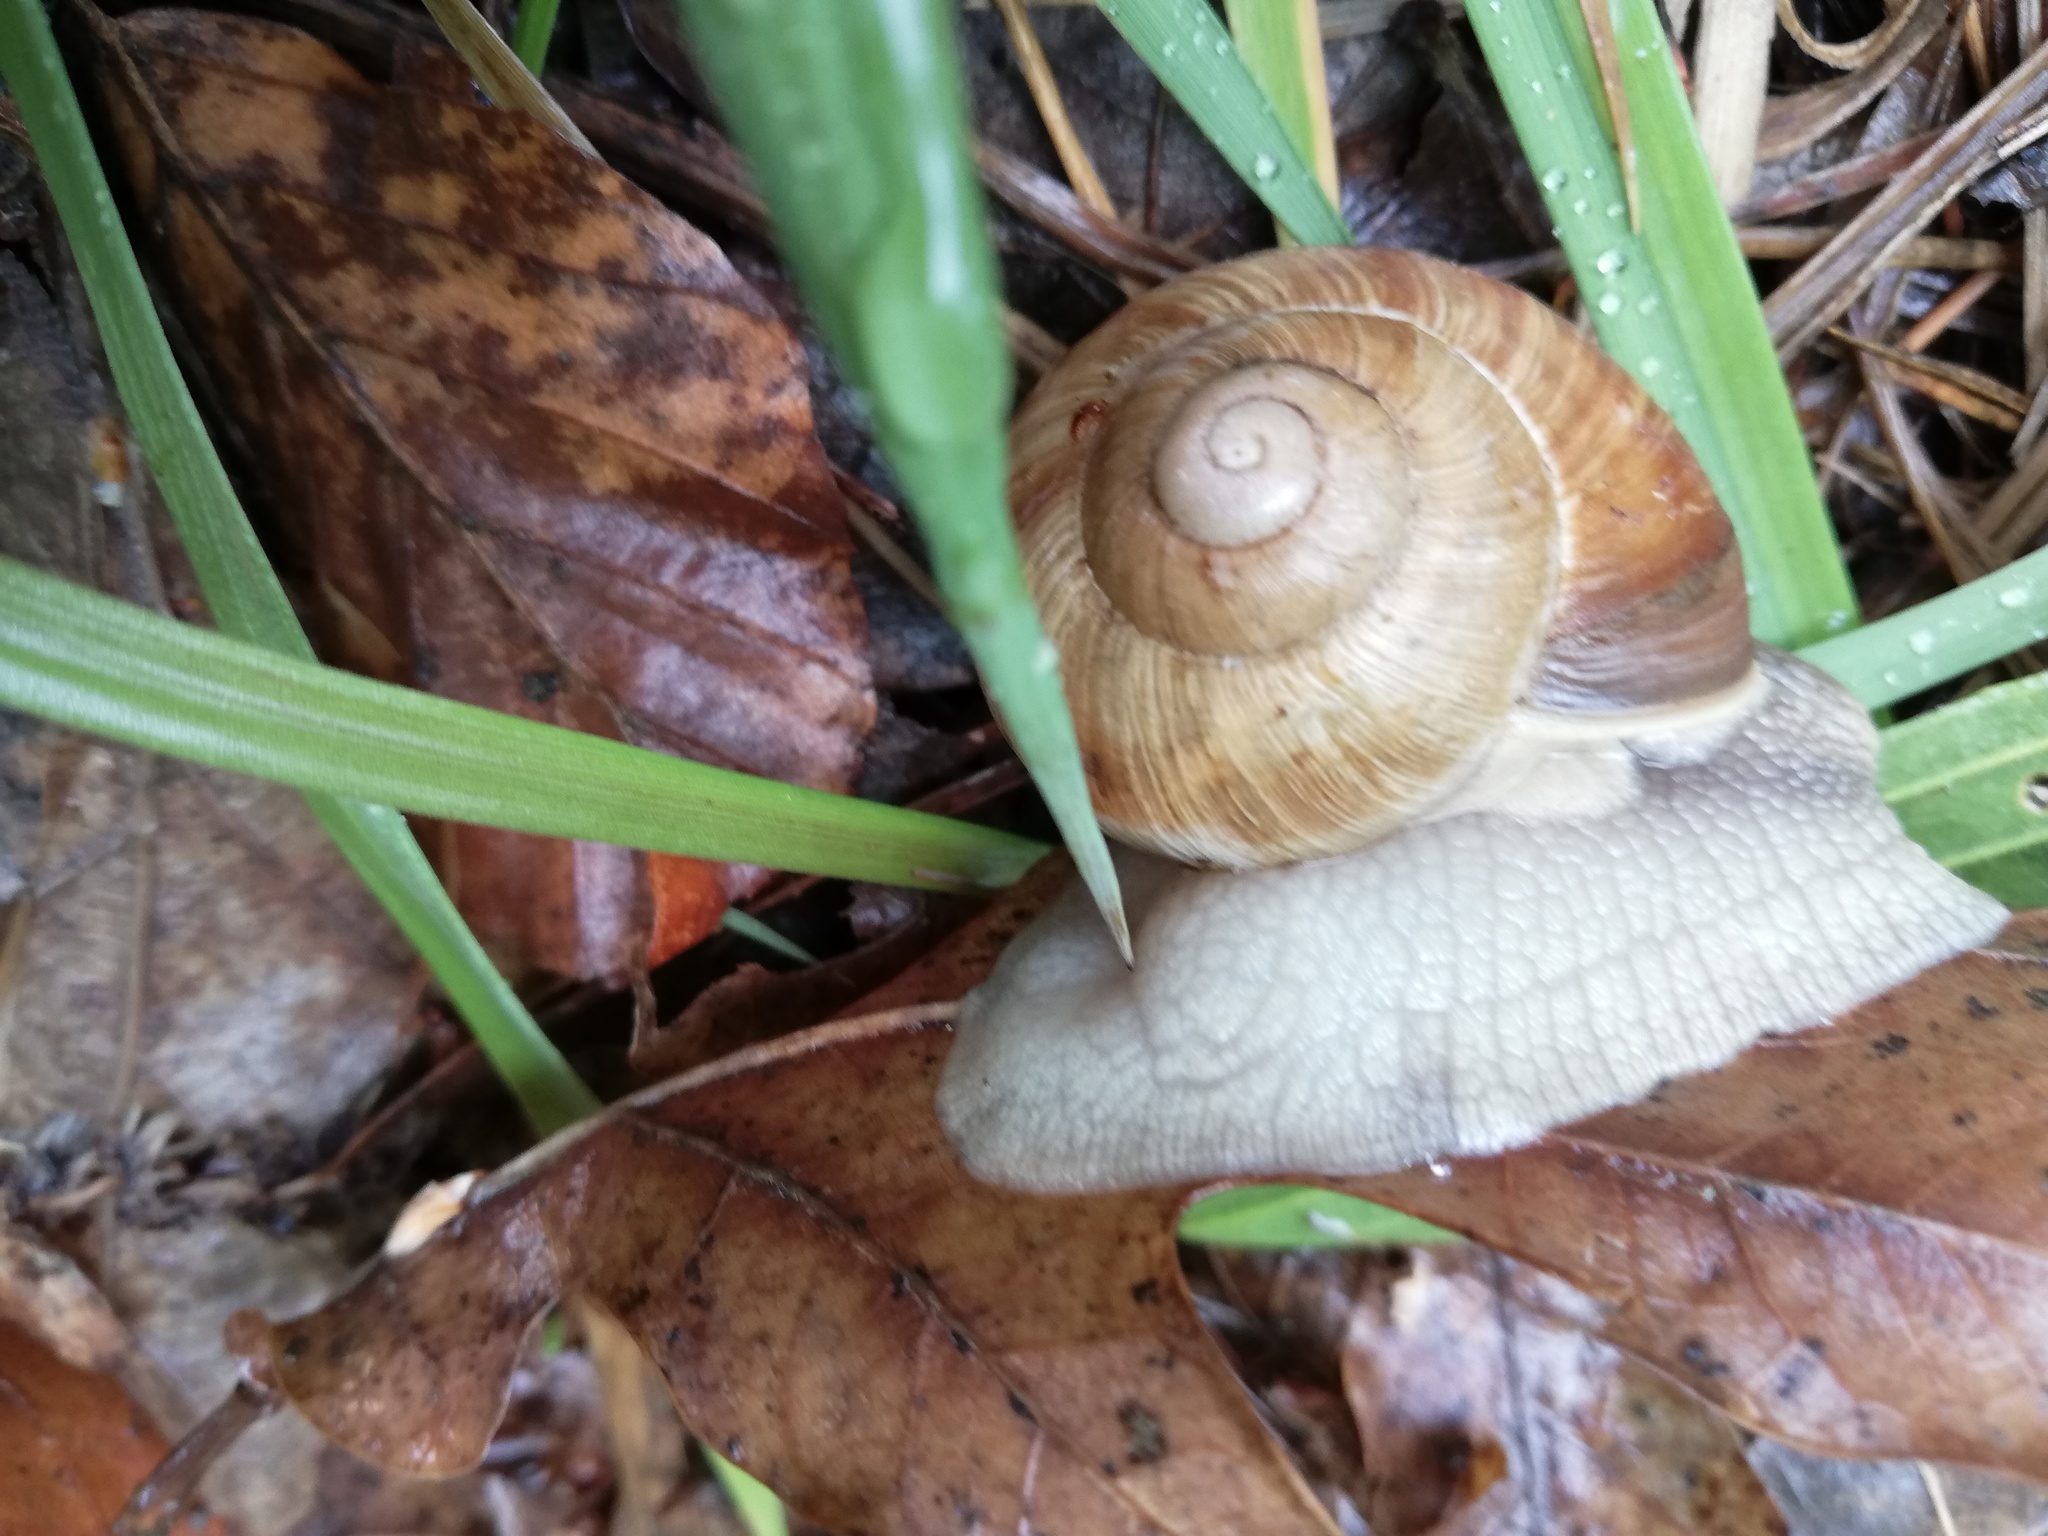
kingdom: Animalia
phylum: Mollusca
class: Gastropoda
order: Stylommatophora
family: Helicidae
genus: Helix
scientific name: Helix pomatia
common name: Roman snail
